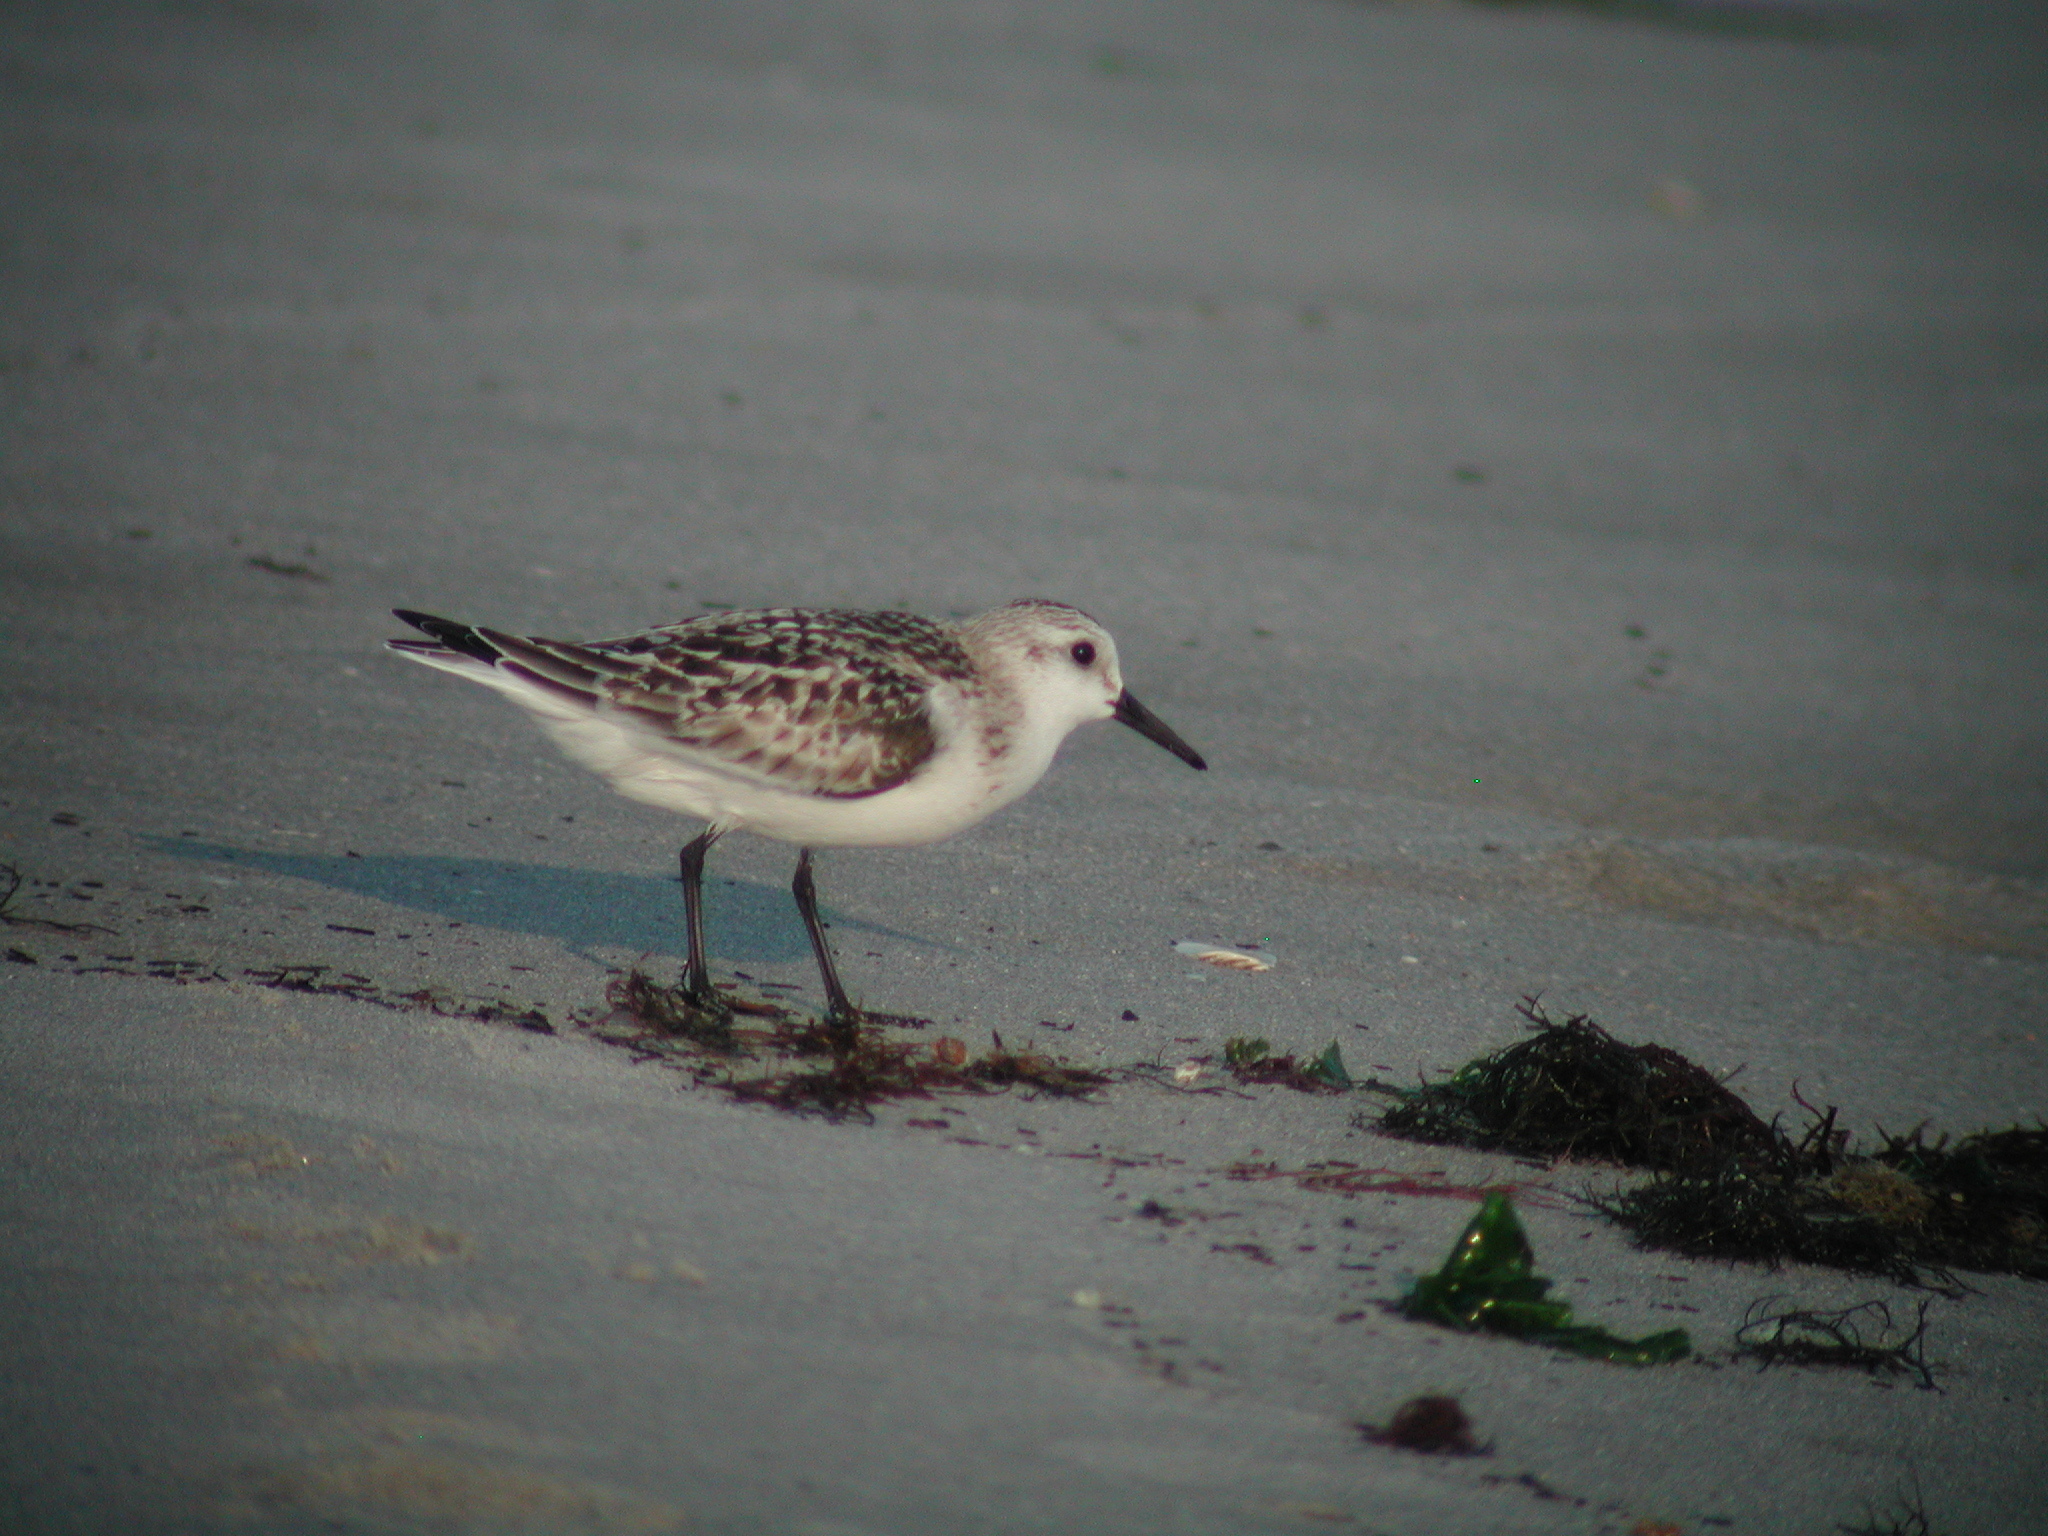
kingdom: Animalia
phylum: Chordata
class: Aves
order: Charadriiformes
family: Scolopacidae
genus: Calidris
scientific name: Calidris alba
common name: Sanderling
